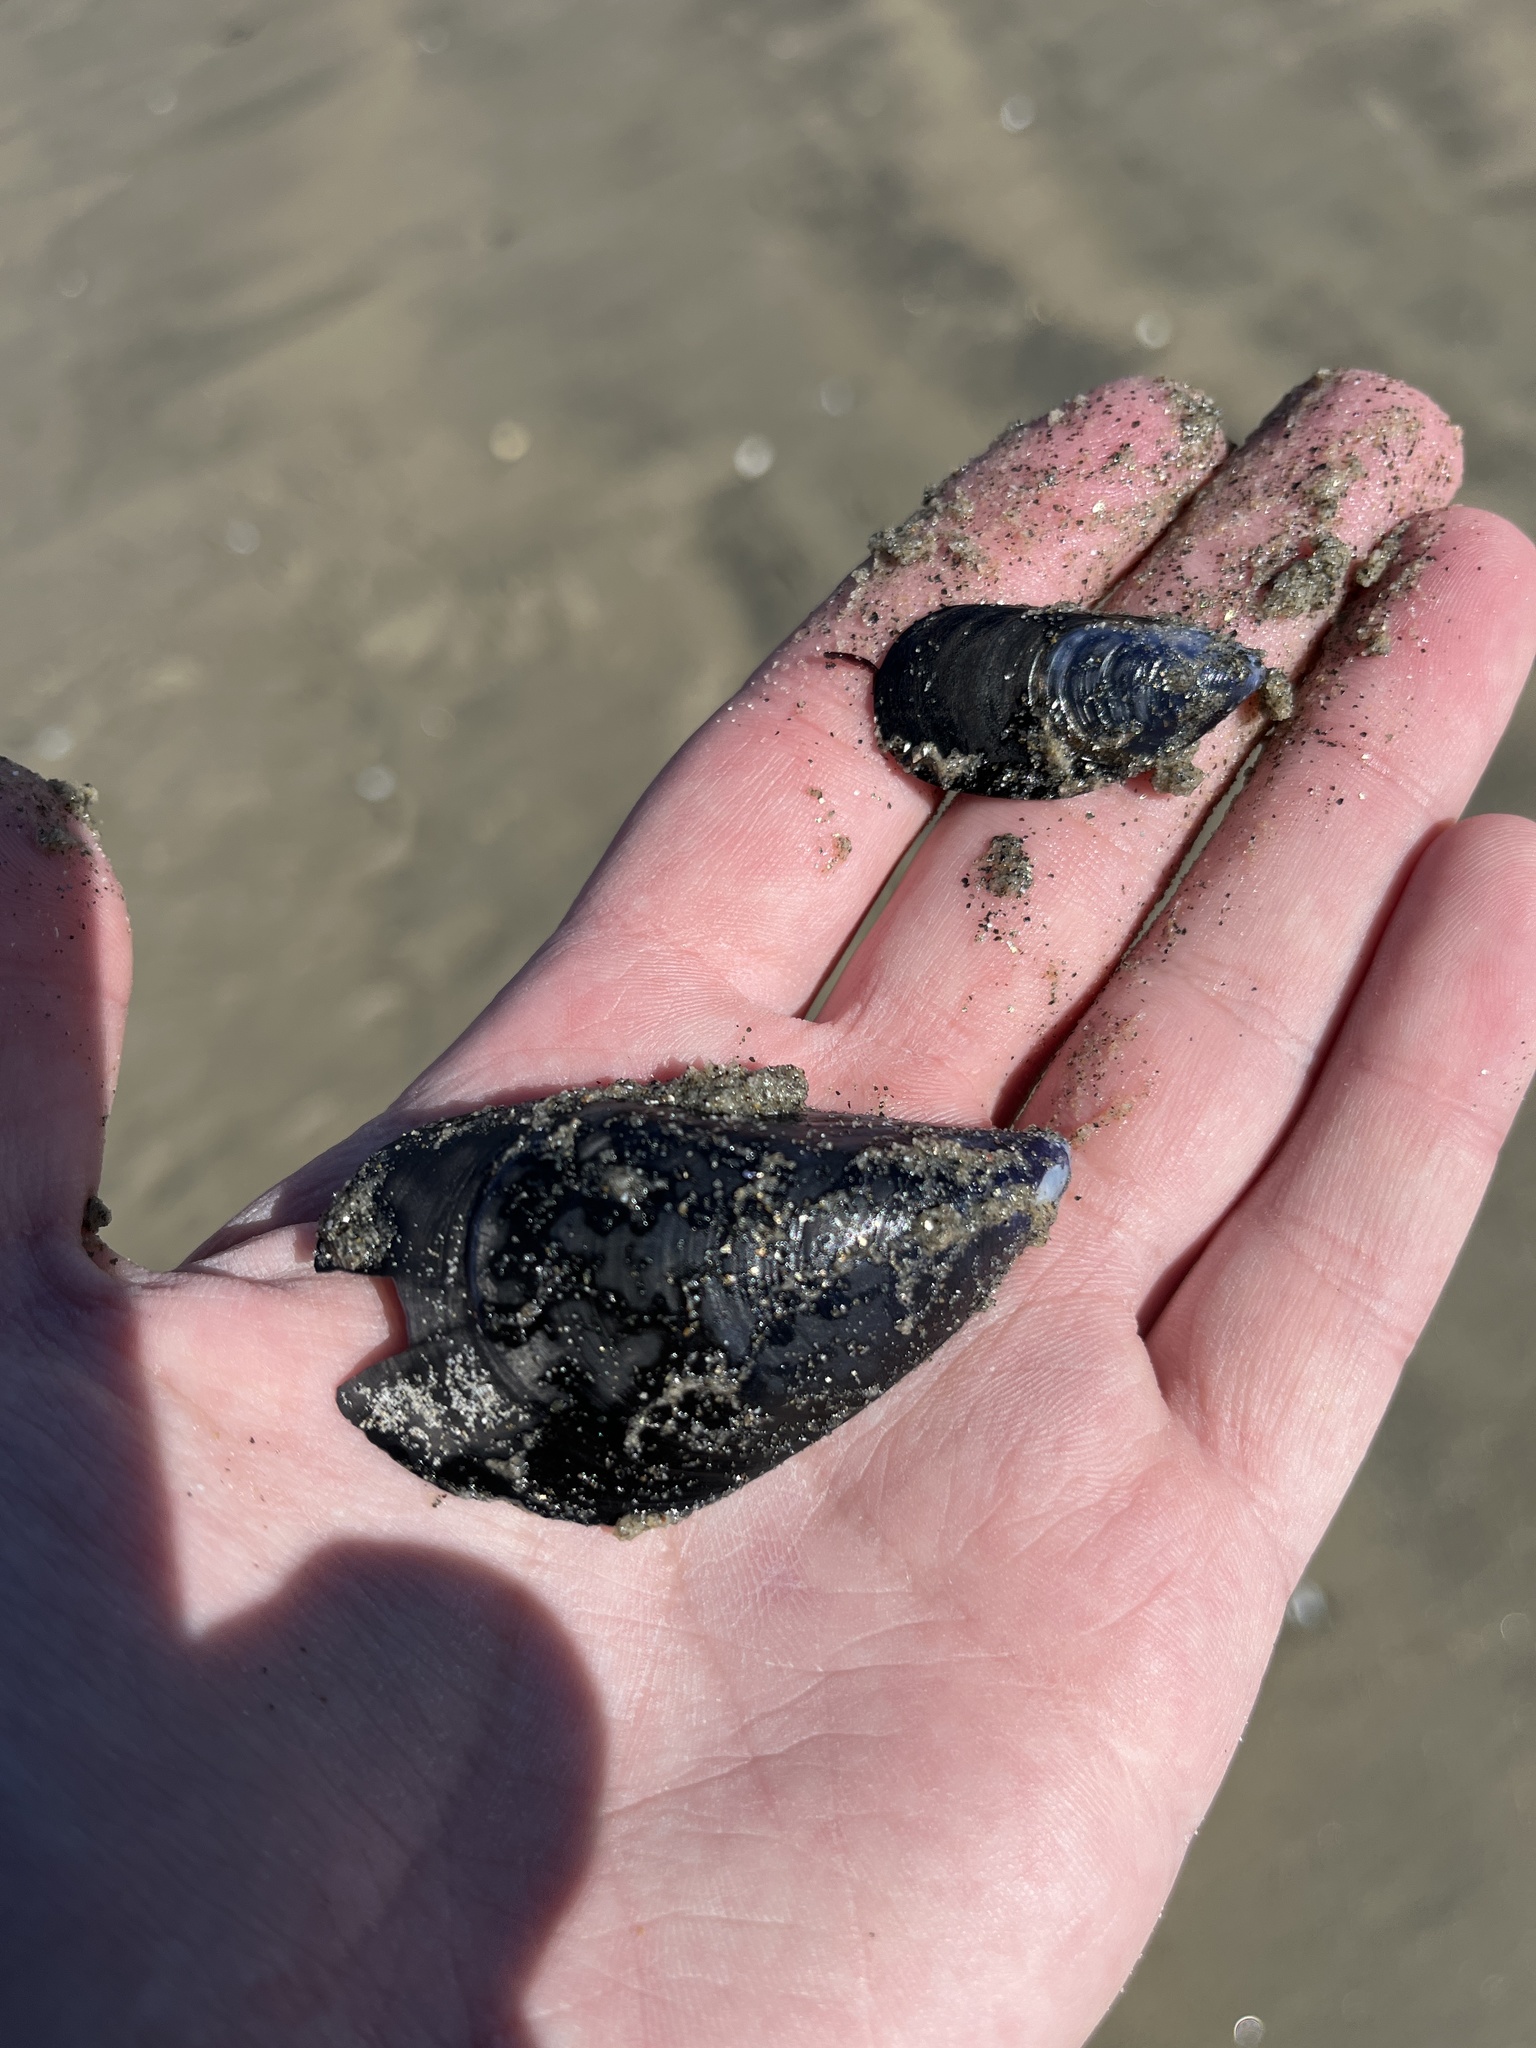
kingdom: Animalia
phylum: Mollusca
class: Bivalvia
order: Mytilida
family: Mytilidae
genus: Mytilus
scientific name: Mytilus galloprovincialis
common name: Mediterranean mussel
